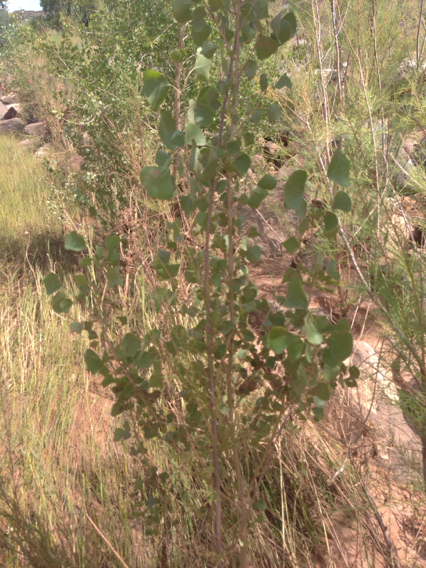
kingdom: Plantae
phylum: Tracheophyta
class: Magnoliopsida
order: Malpighiales
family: Salicaceae
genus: Populus
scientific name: Populus fremontii
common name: Fremont's cottonwood
